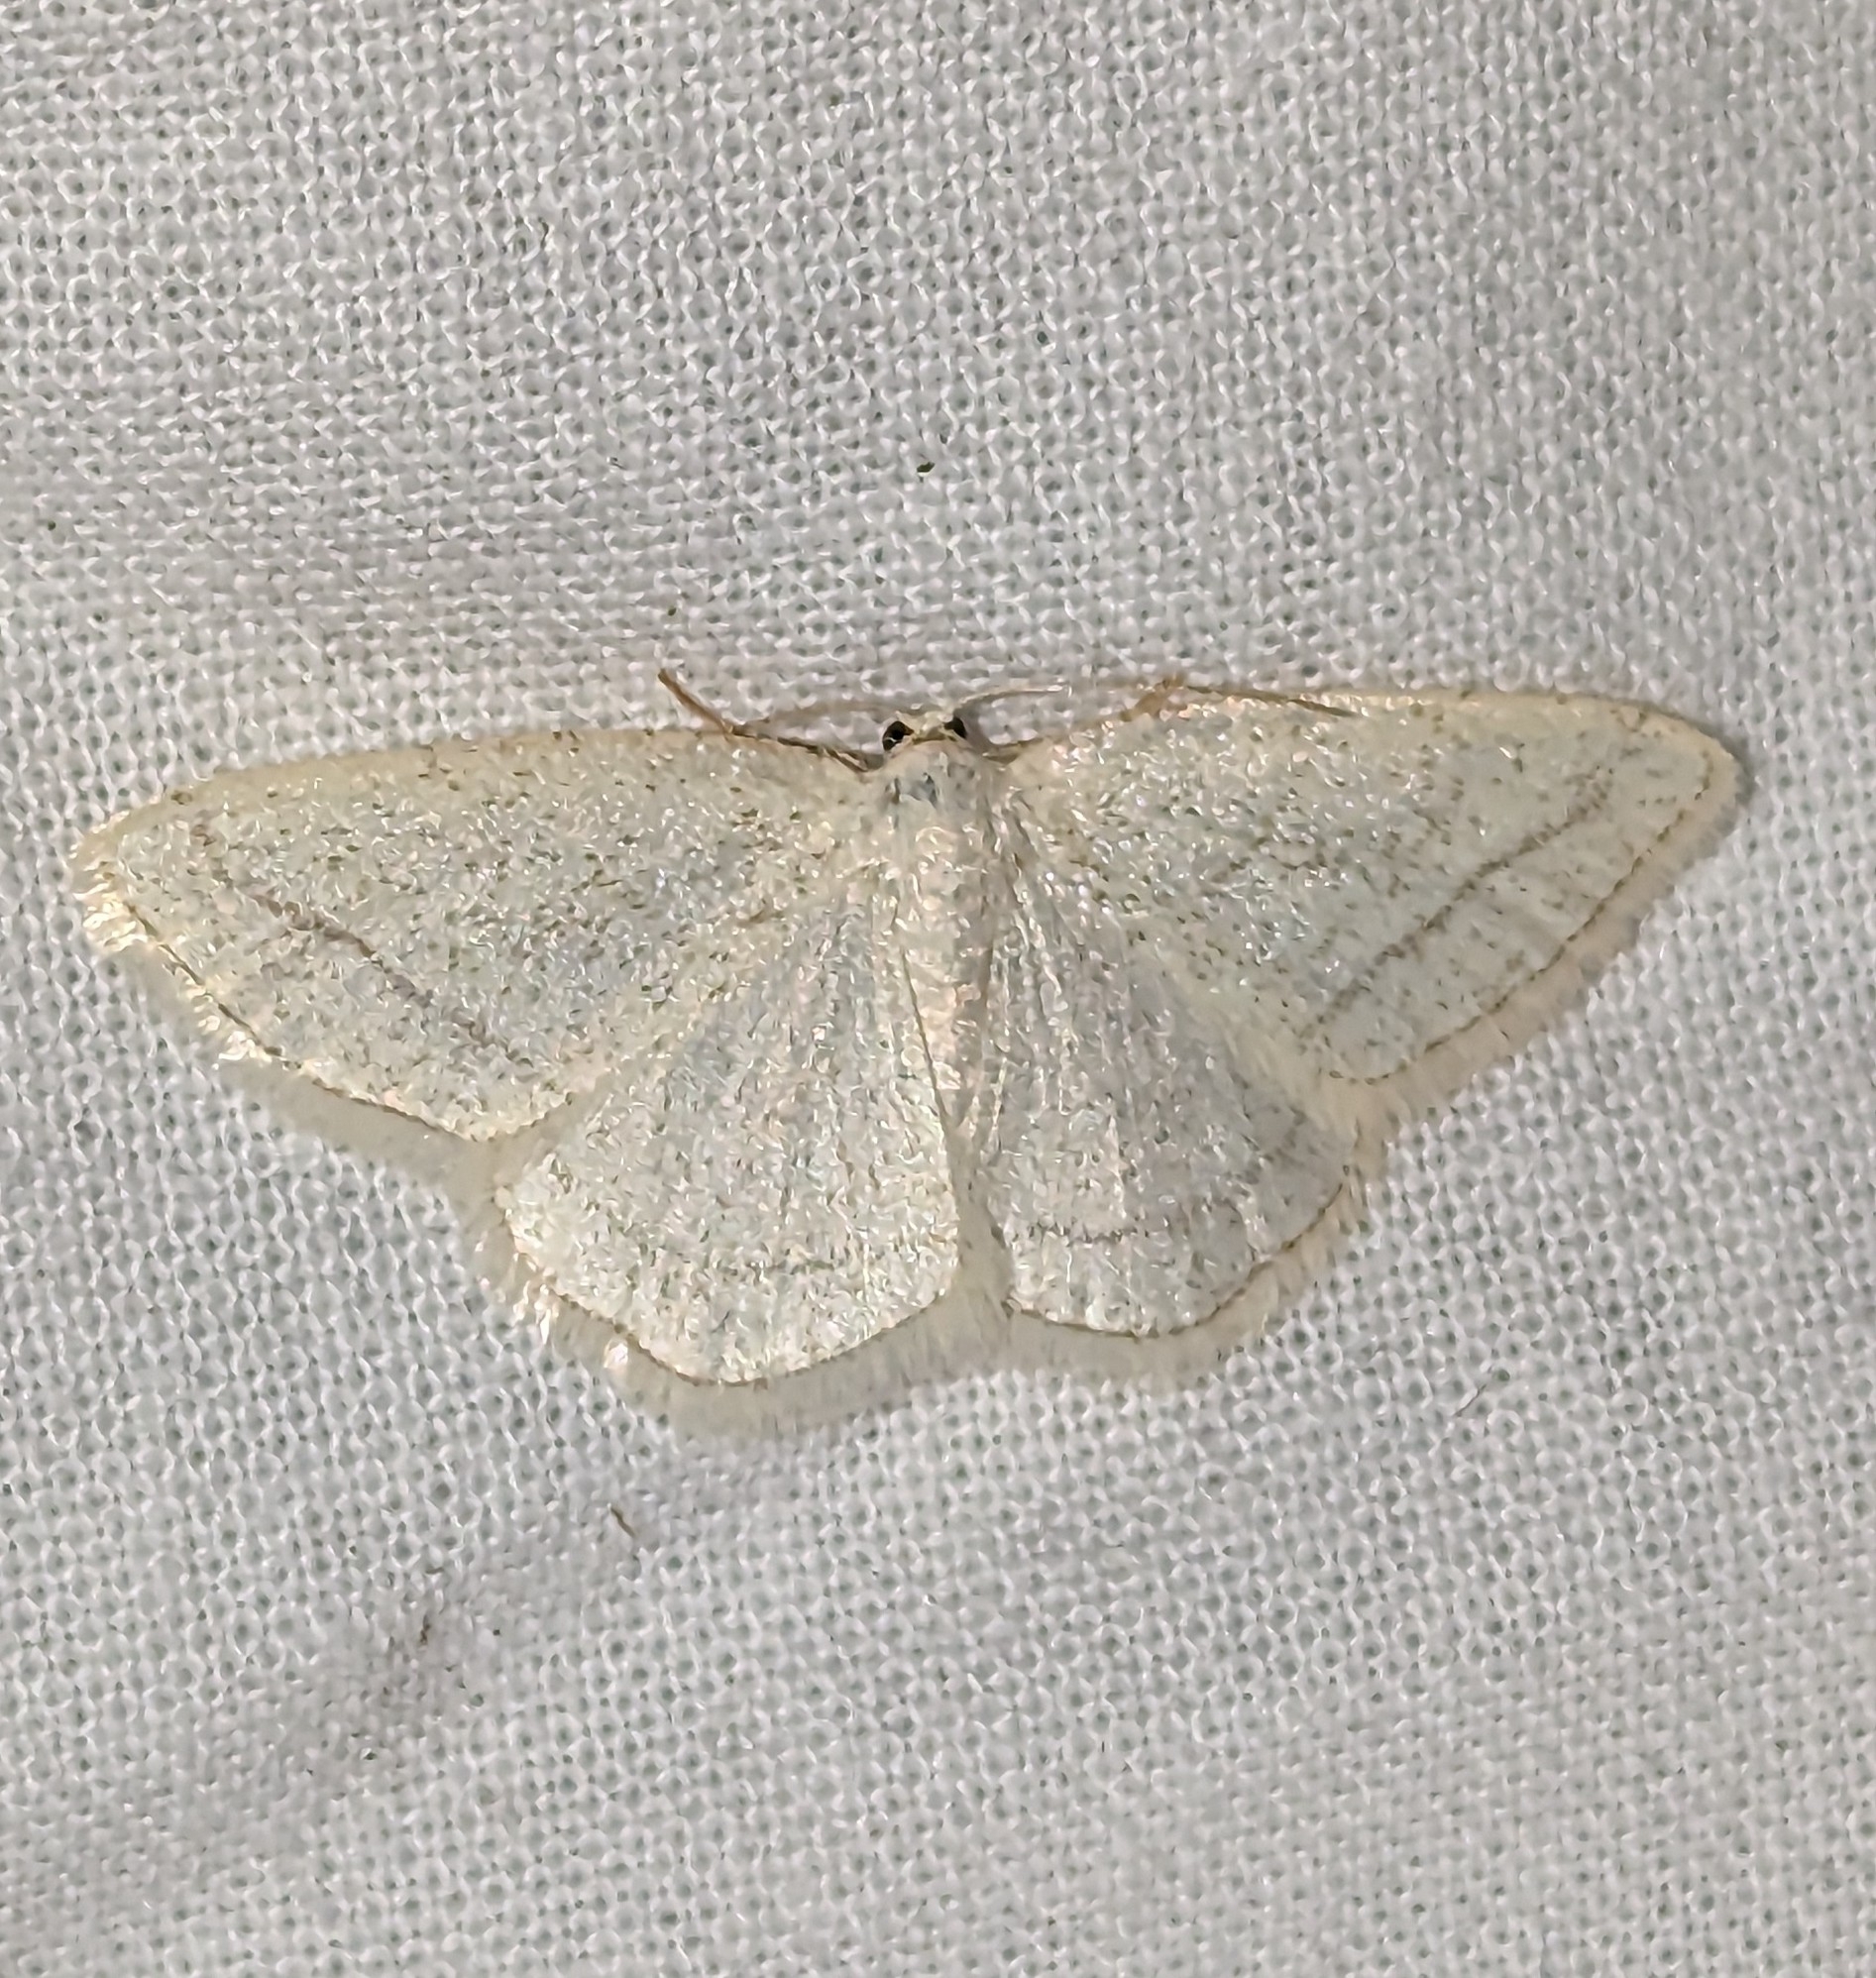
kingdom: Animalia
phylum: Arthropoda
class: Insecta
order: Lepidoptera
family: Geometridae
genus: Protitame
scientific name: Protitame subalbaria
